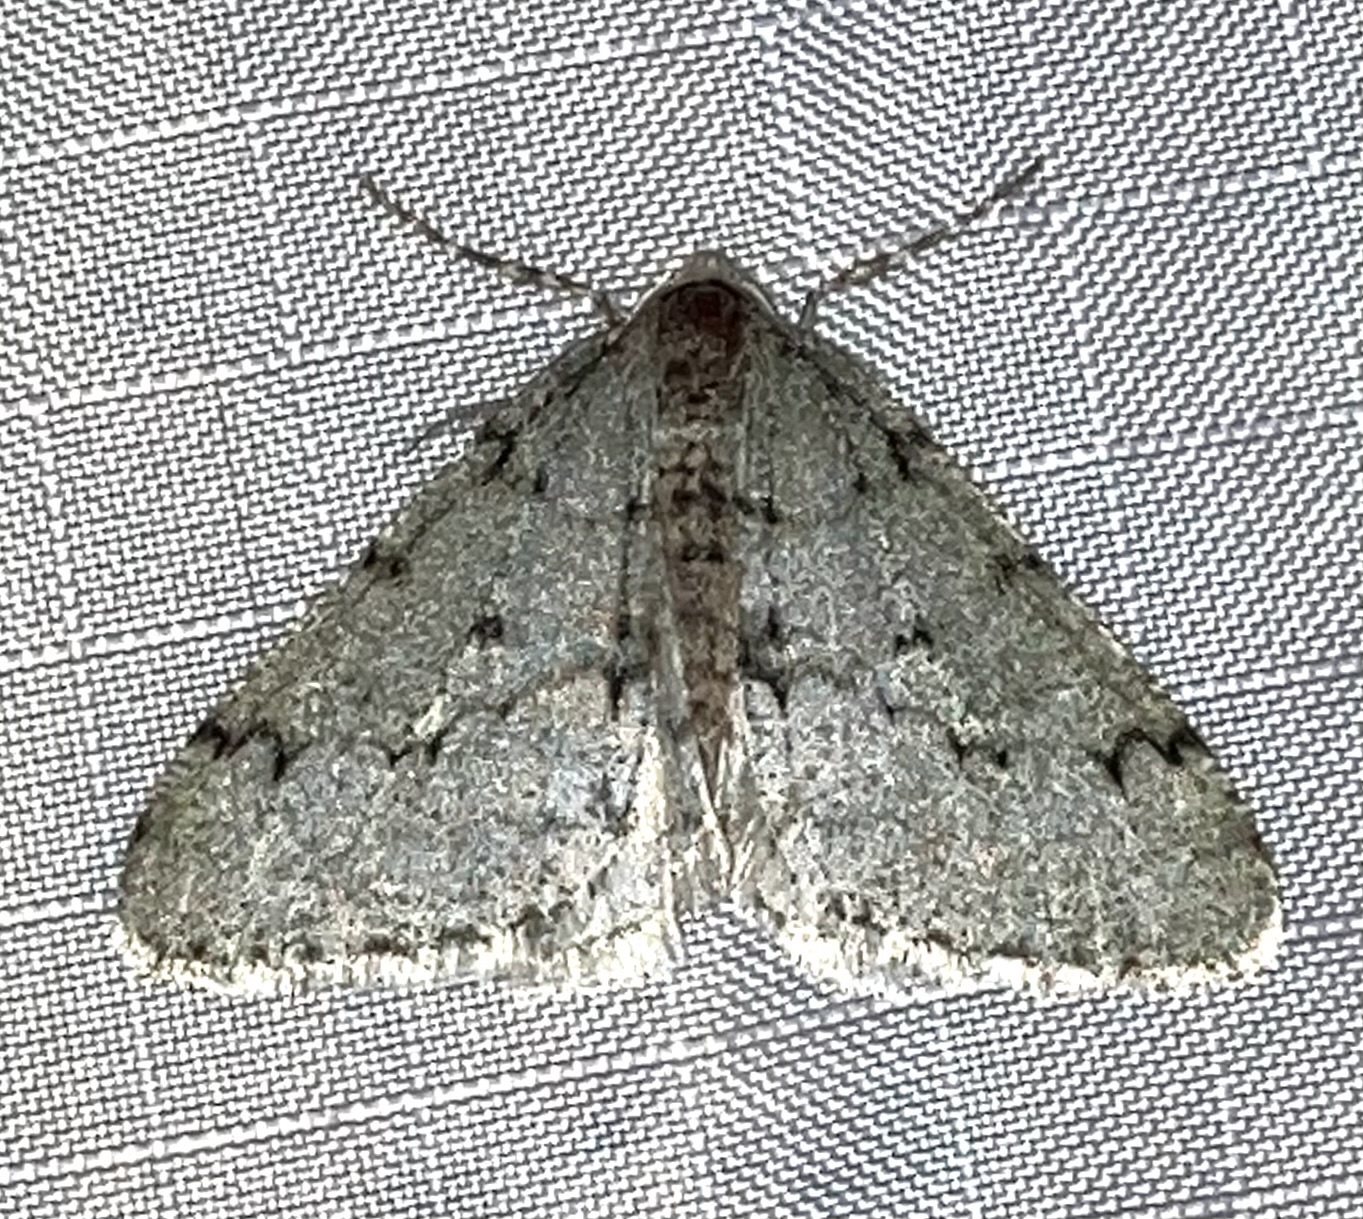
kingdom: Animalia
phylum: Arthropoda
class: Insecta
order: Lepidoptera
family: Geometridae
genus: Phigalia
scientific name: Phigalia strigataria
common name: Small phigalia
